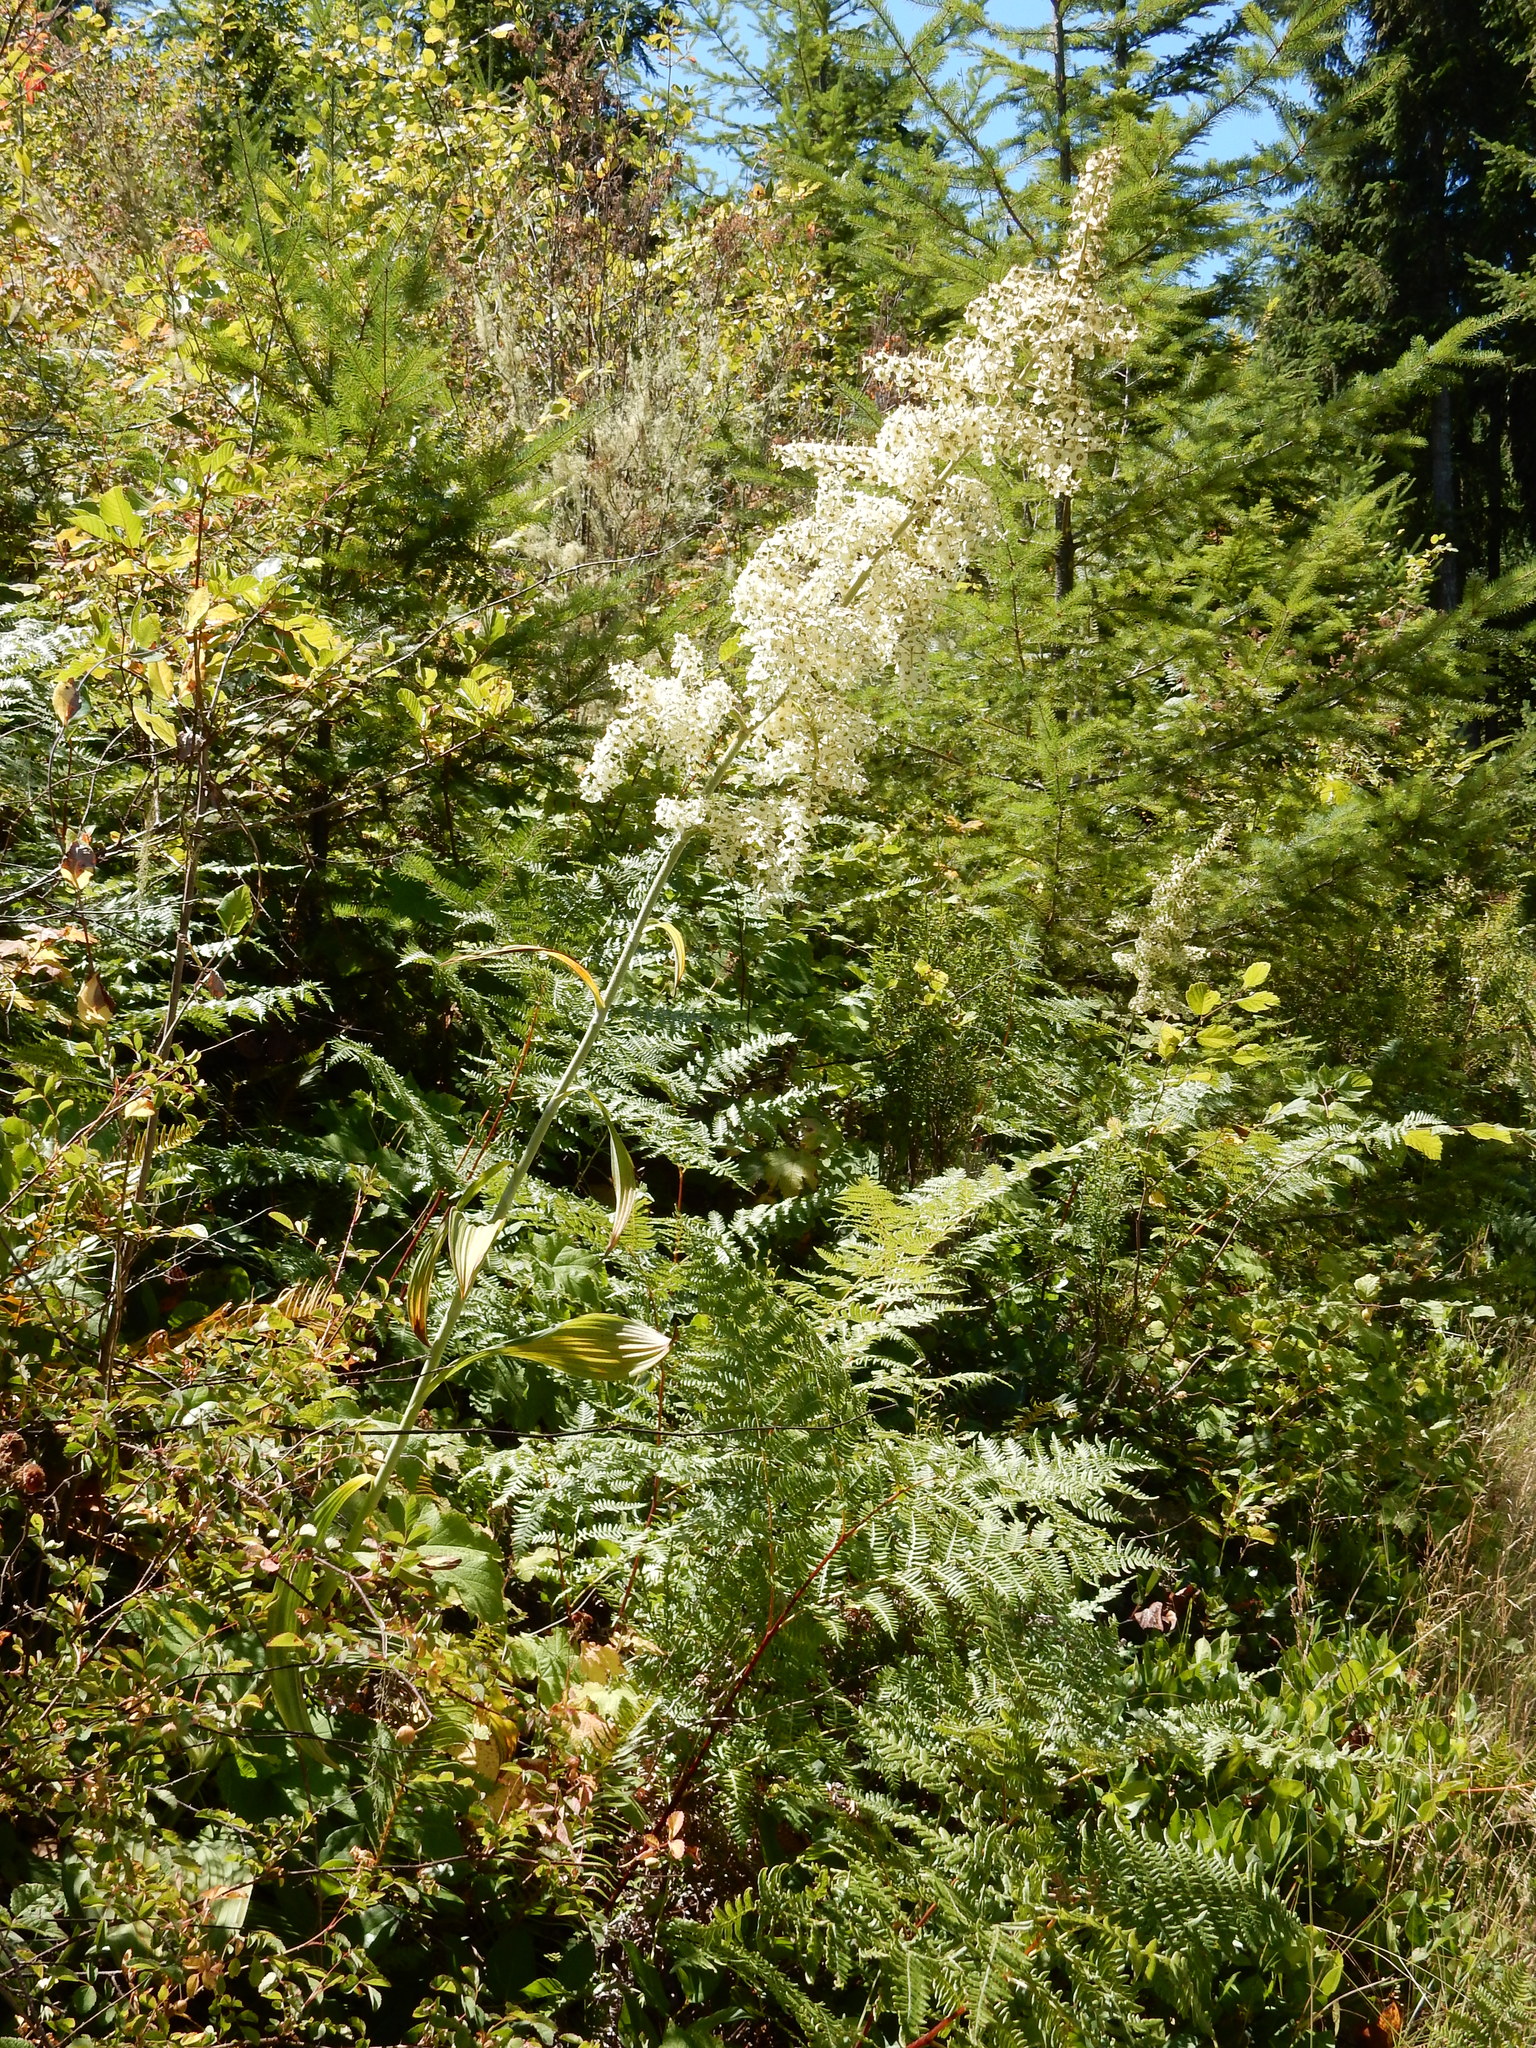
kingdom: Plantae
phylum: Tracheophyta
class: Liliopsida
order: Liliales
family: Melanthiaceae
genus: Veratrum
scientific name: Veratrum insolitum
